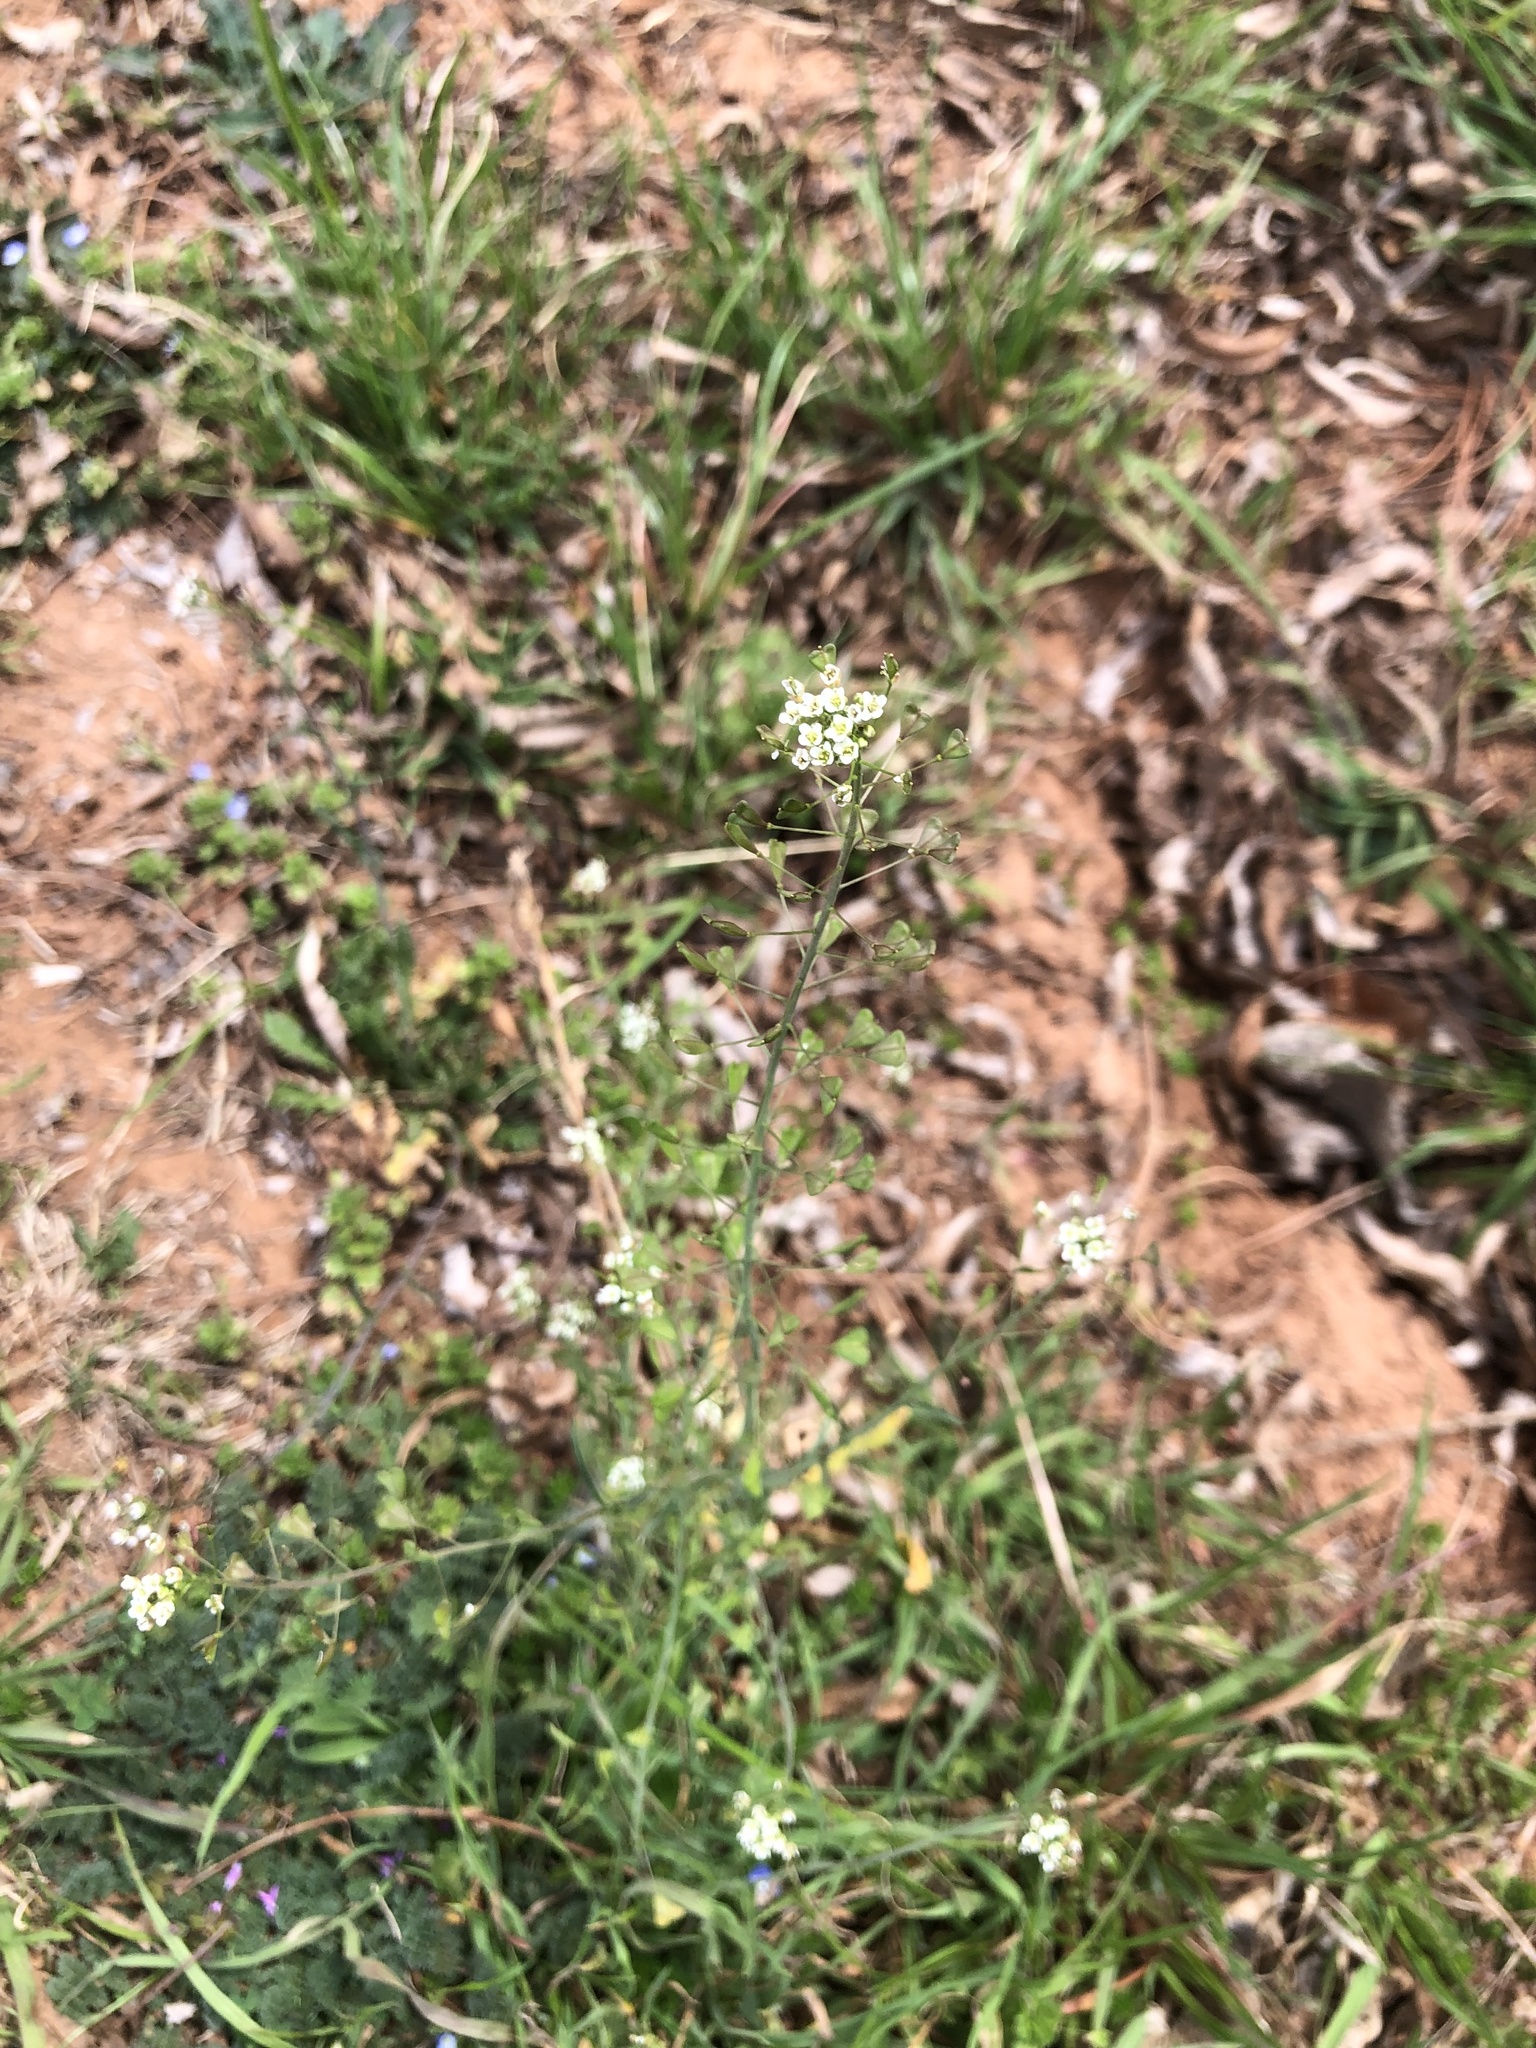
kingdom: Plantae
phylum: Tracheophyta
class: Magnoliopsida
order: Brassicales
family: Brassicaceae
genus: Capsella
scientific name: Capsella bursa-pastoris
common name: Shepherd's purse
